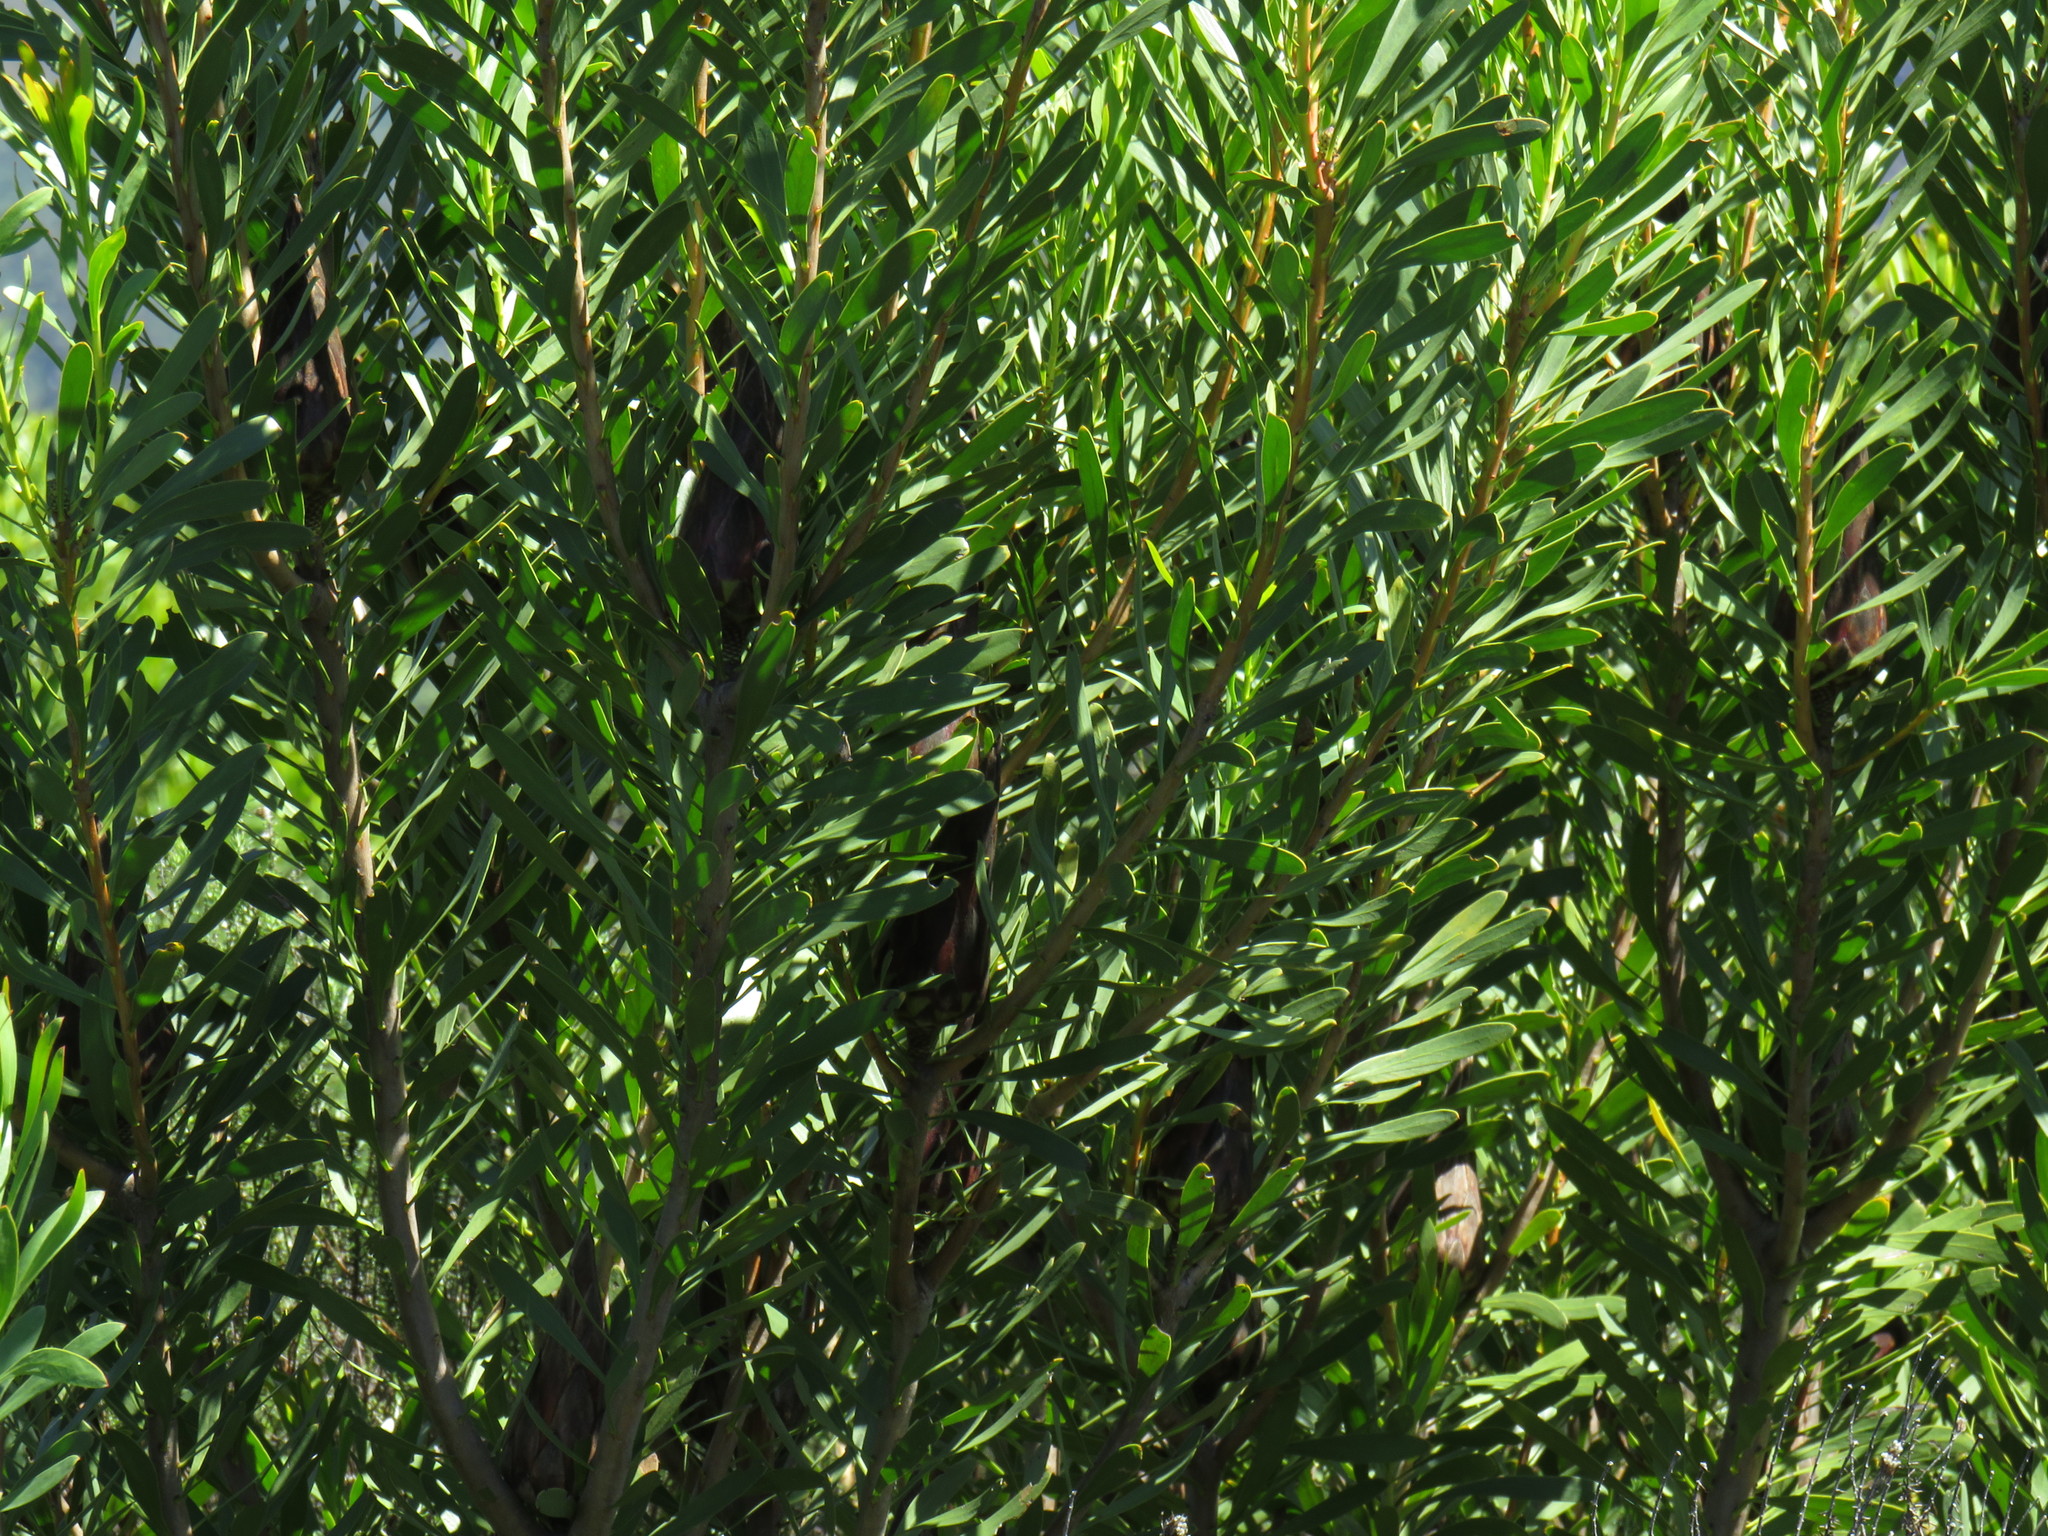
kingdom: Plantae
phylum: Tracheophyta
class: Magnoliopsida
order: Proteales
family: Proteaceae
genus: Protea
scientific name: Protea repens
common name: Sugarbush
